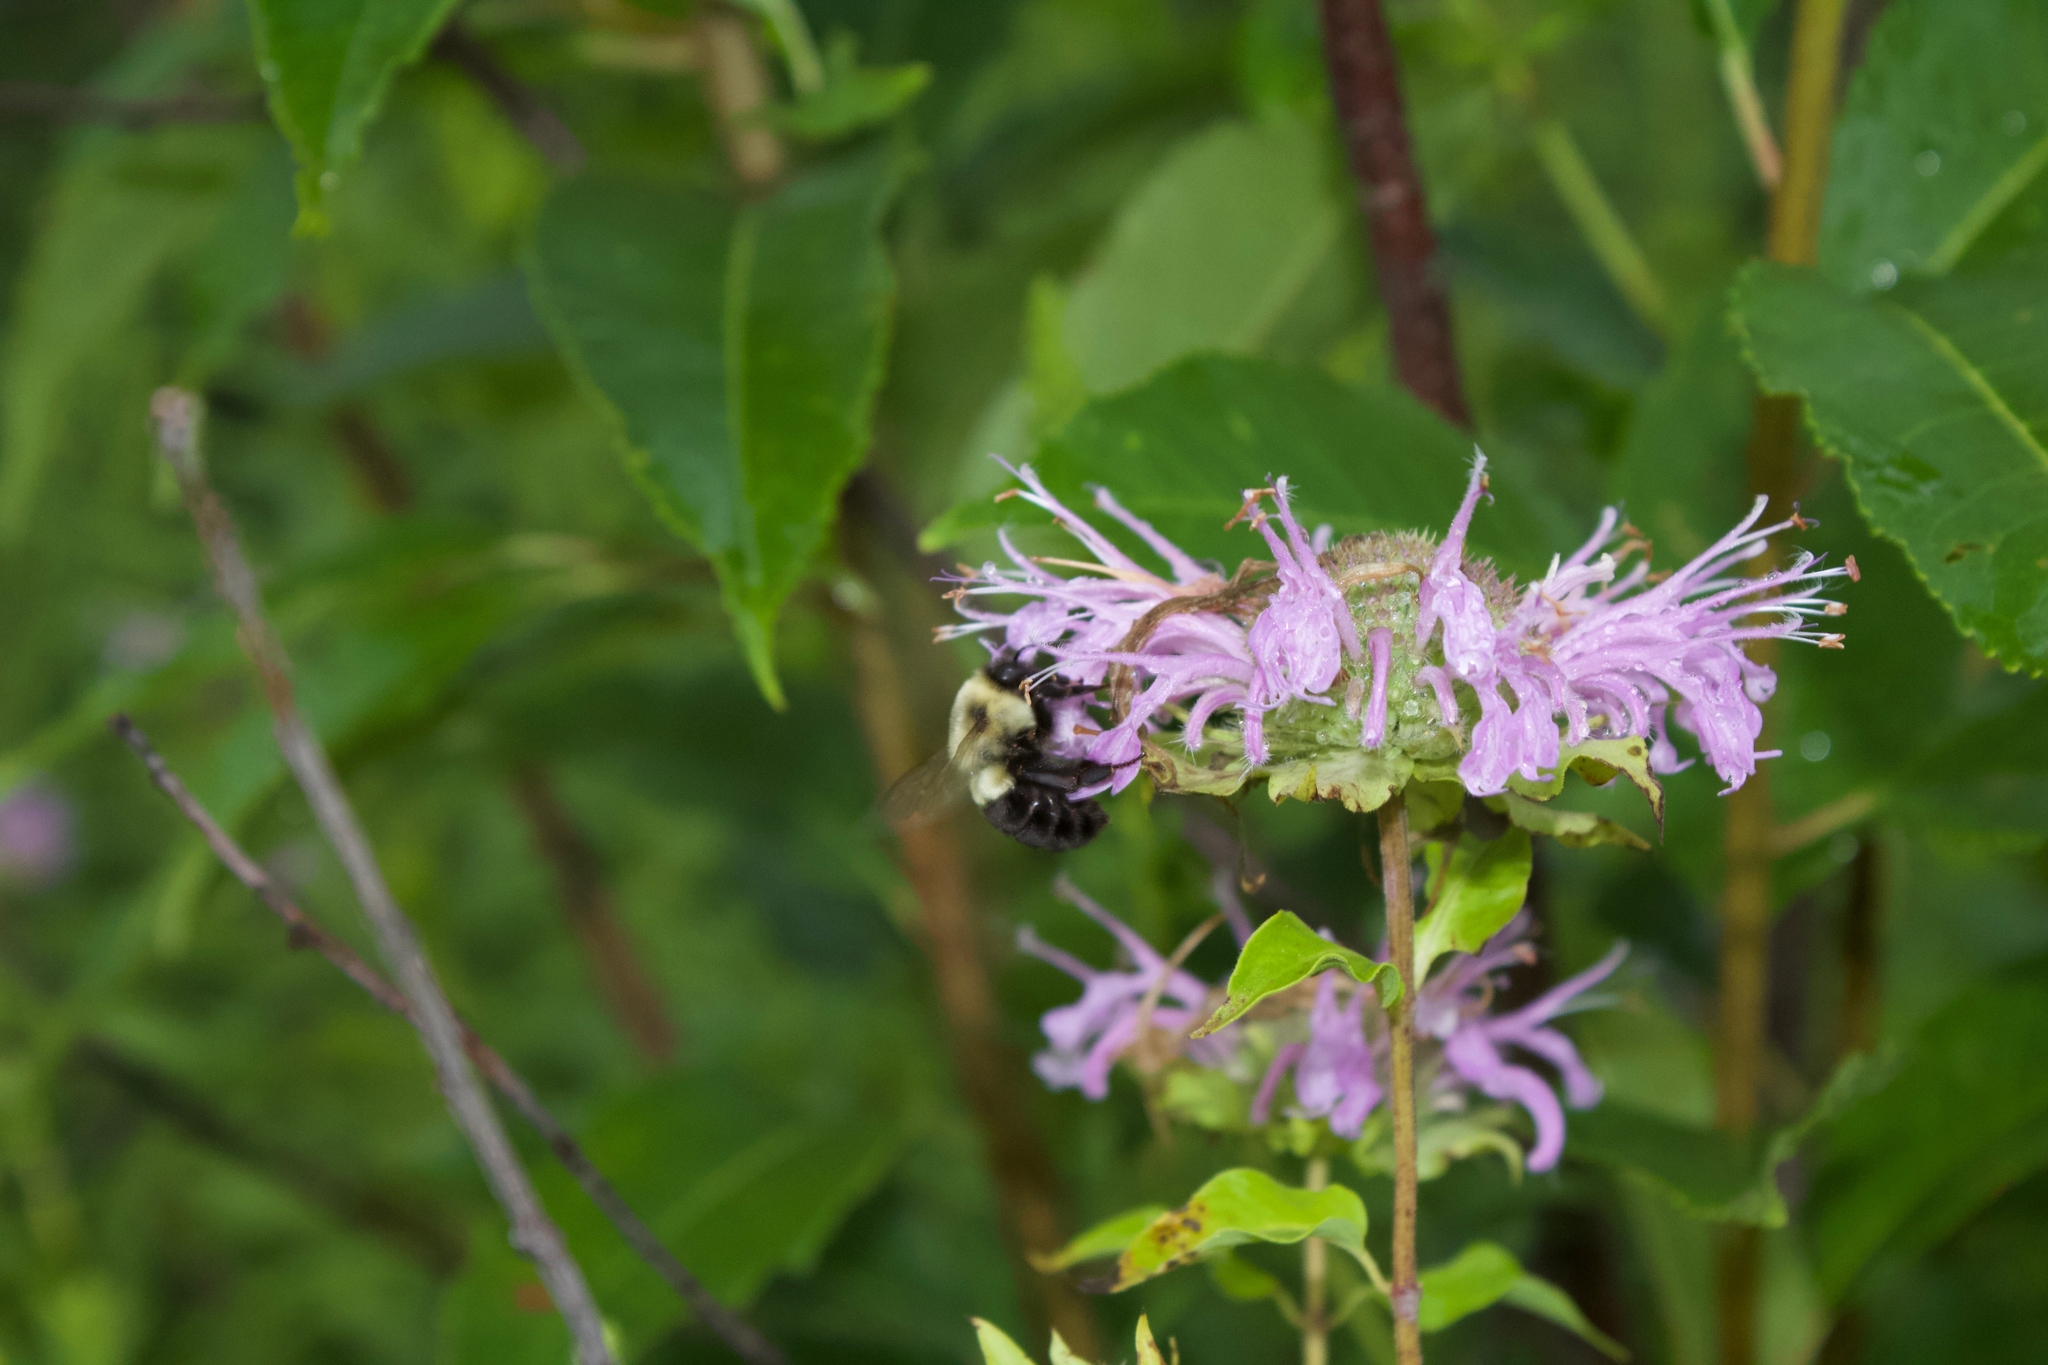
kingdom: Animalia
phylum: Arthropoda
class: Insecta
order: Hymenoptera
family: Apidae
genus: Bombus
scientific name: Bombus impatiens
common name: Common eastern bumble bee
